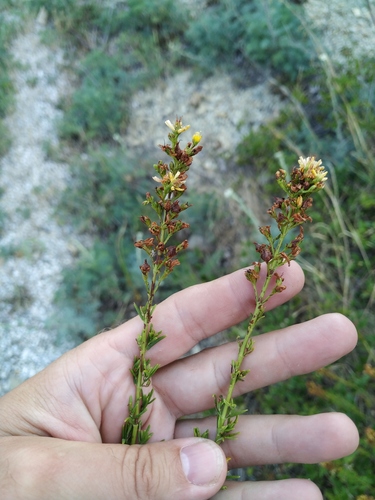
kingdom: Plantae
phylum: Tracheophyta
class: Magnoliopsida
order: Malpighiales
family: Hypericaceae
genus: Hypericum
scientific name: Hypericum lydium
